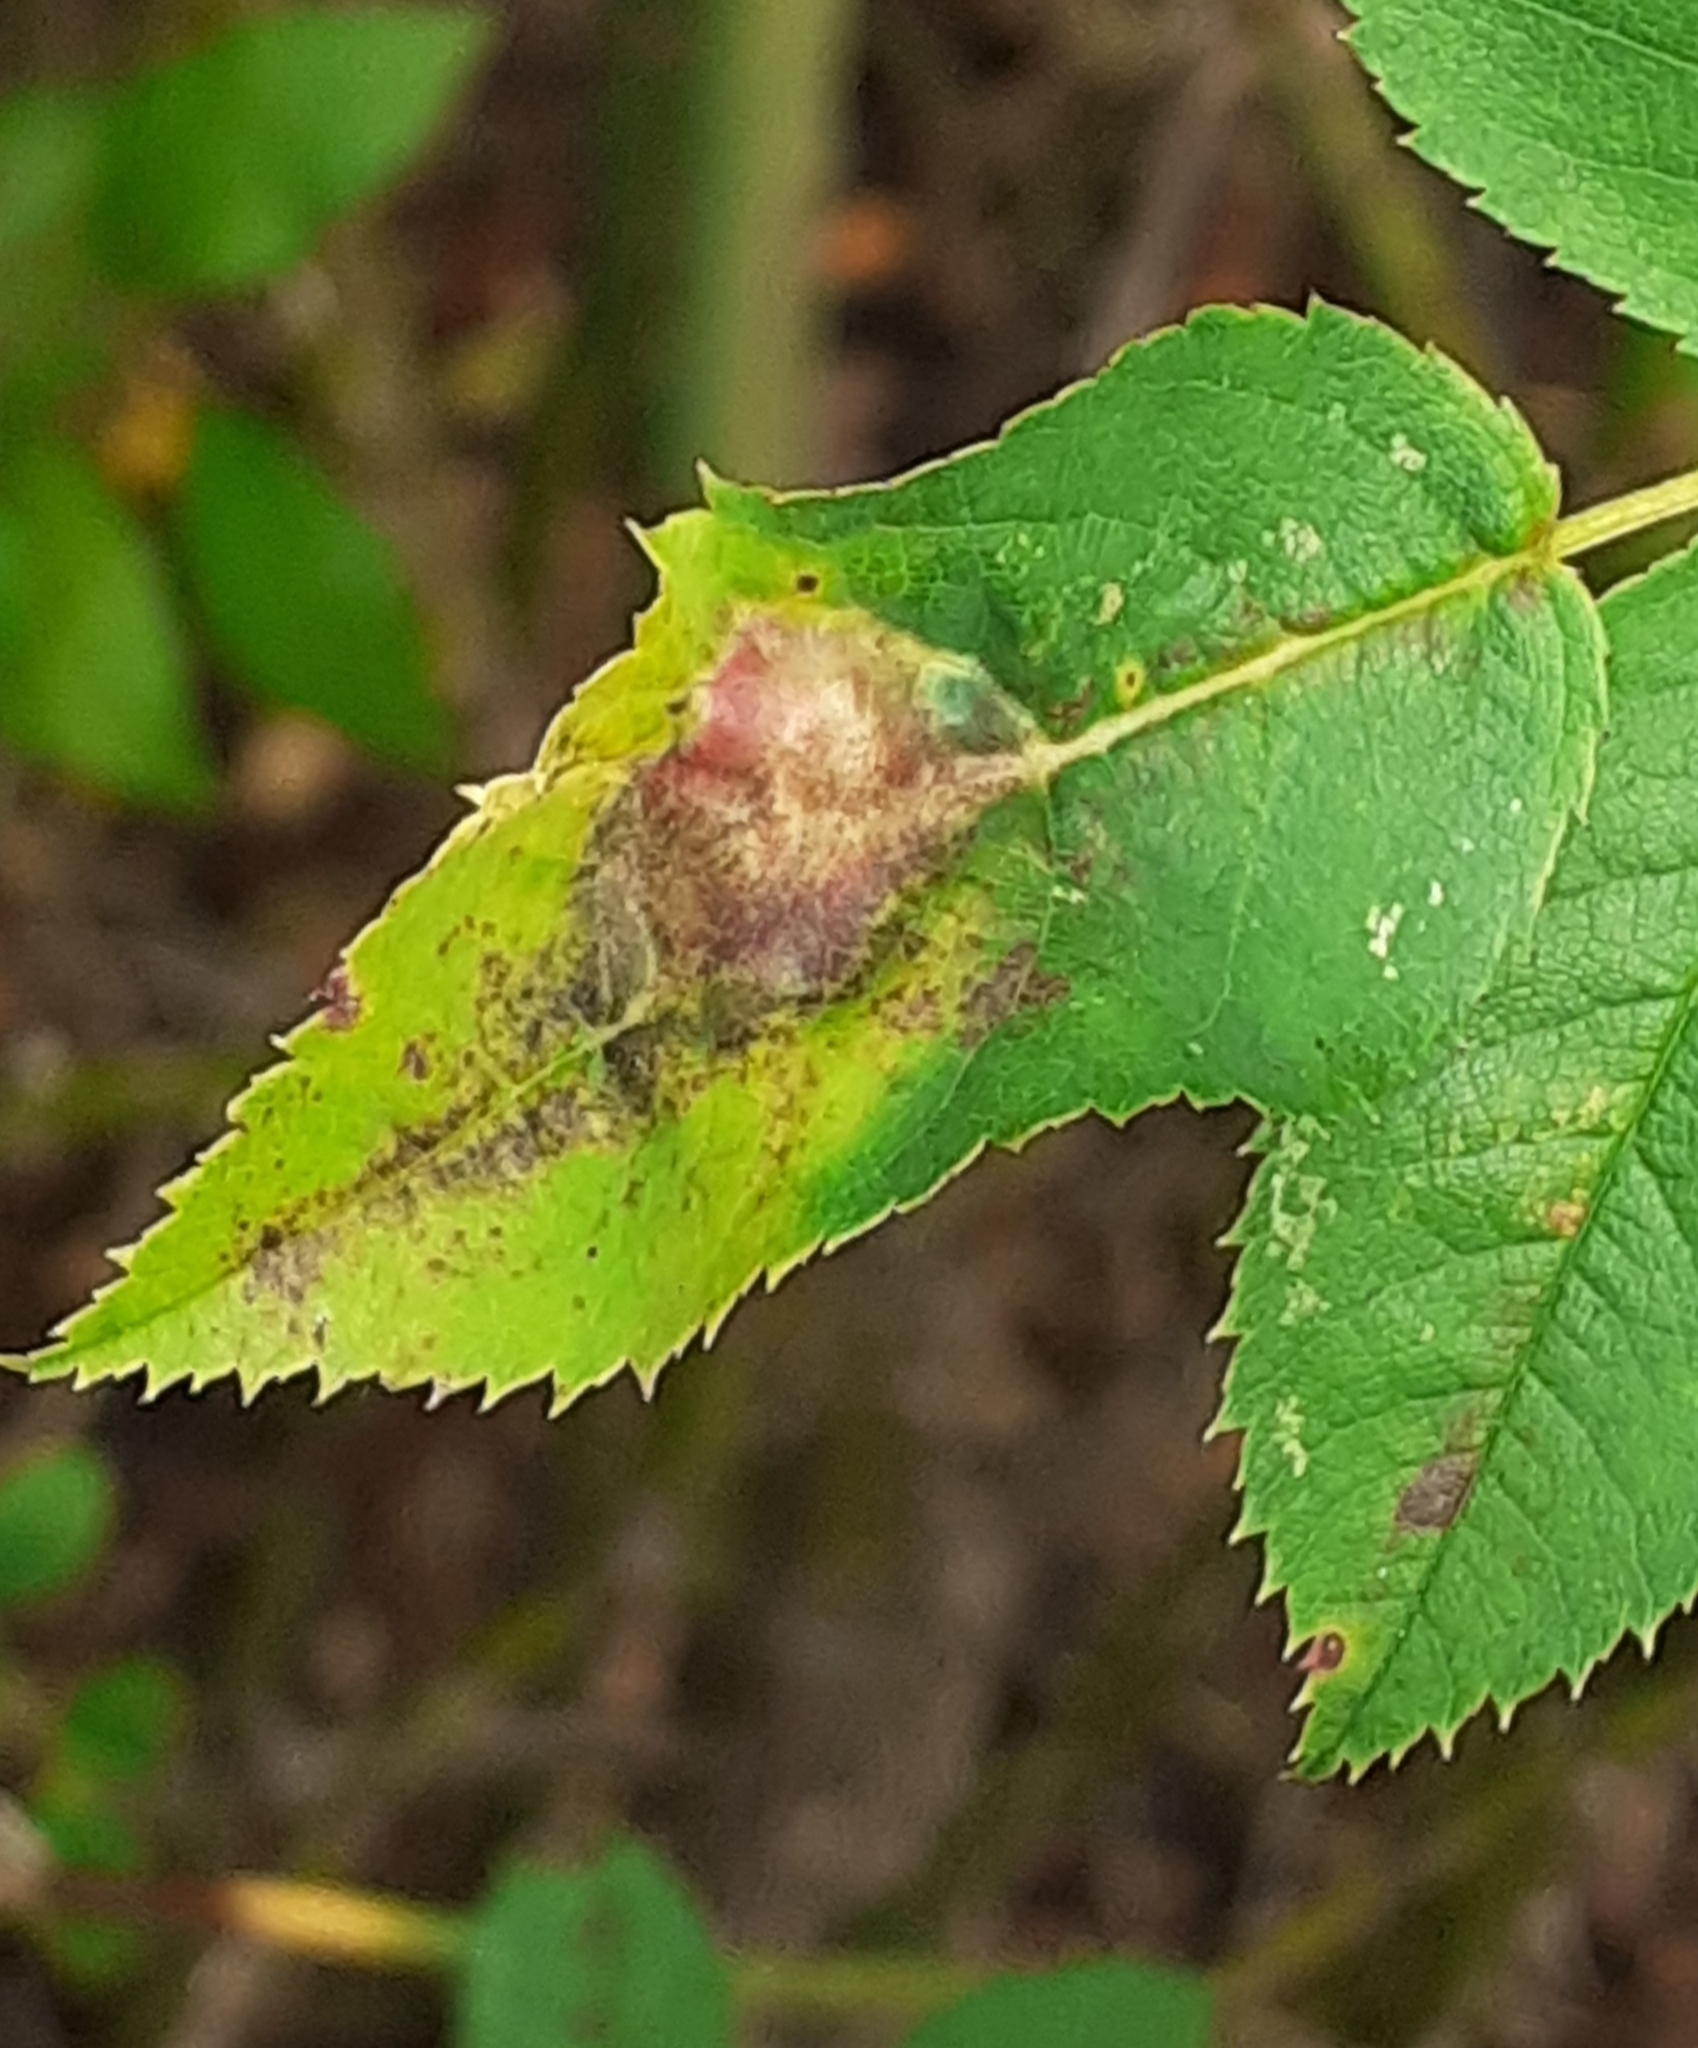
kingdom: Animalia
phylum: Arthropoda
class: Insecta
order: Hymenoptera
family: Cynipidae
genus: Diplolepis
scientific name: Diplolepis spinosissimae
